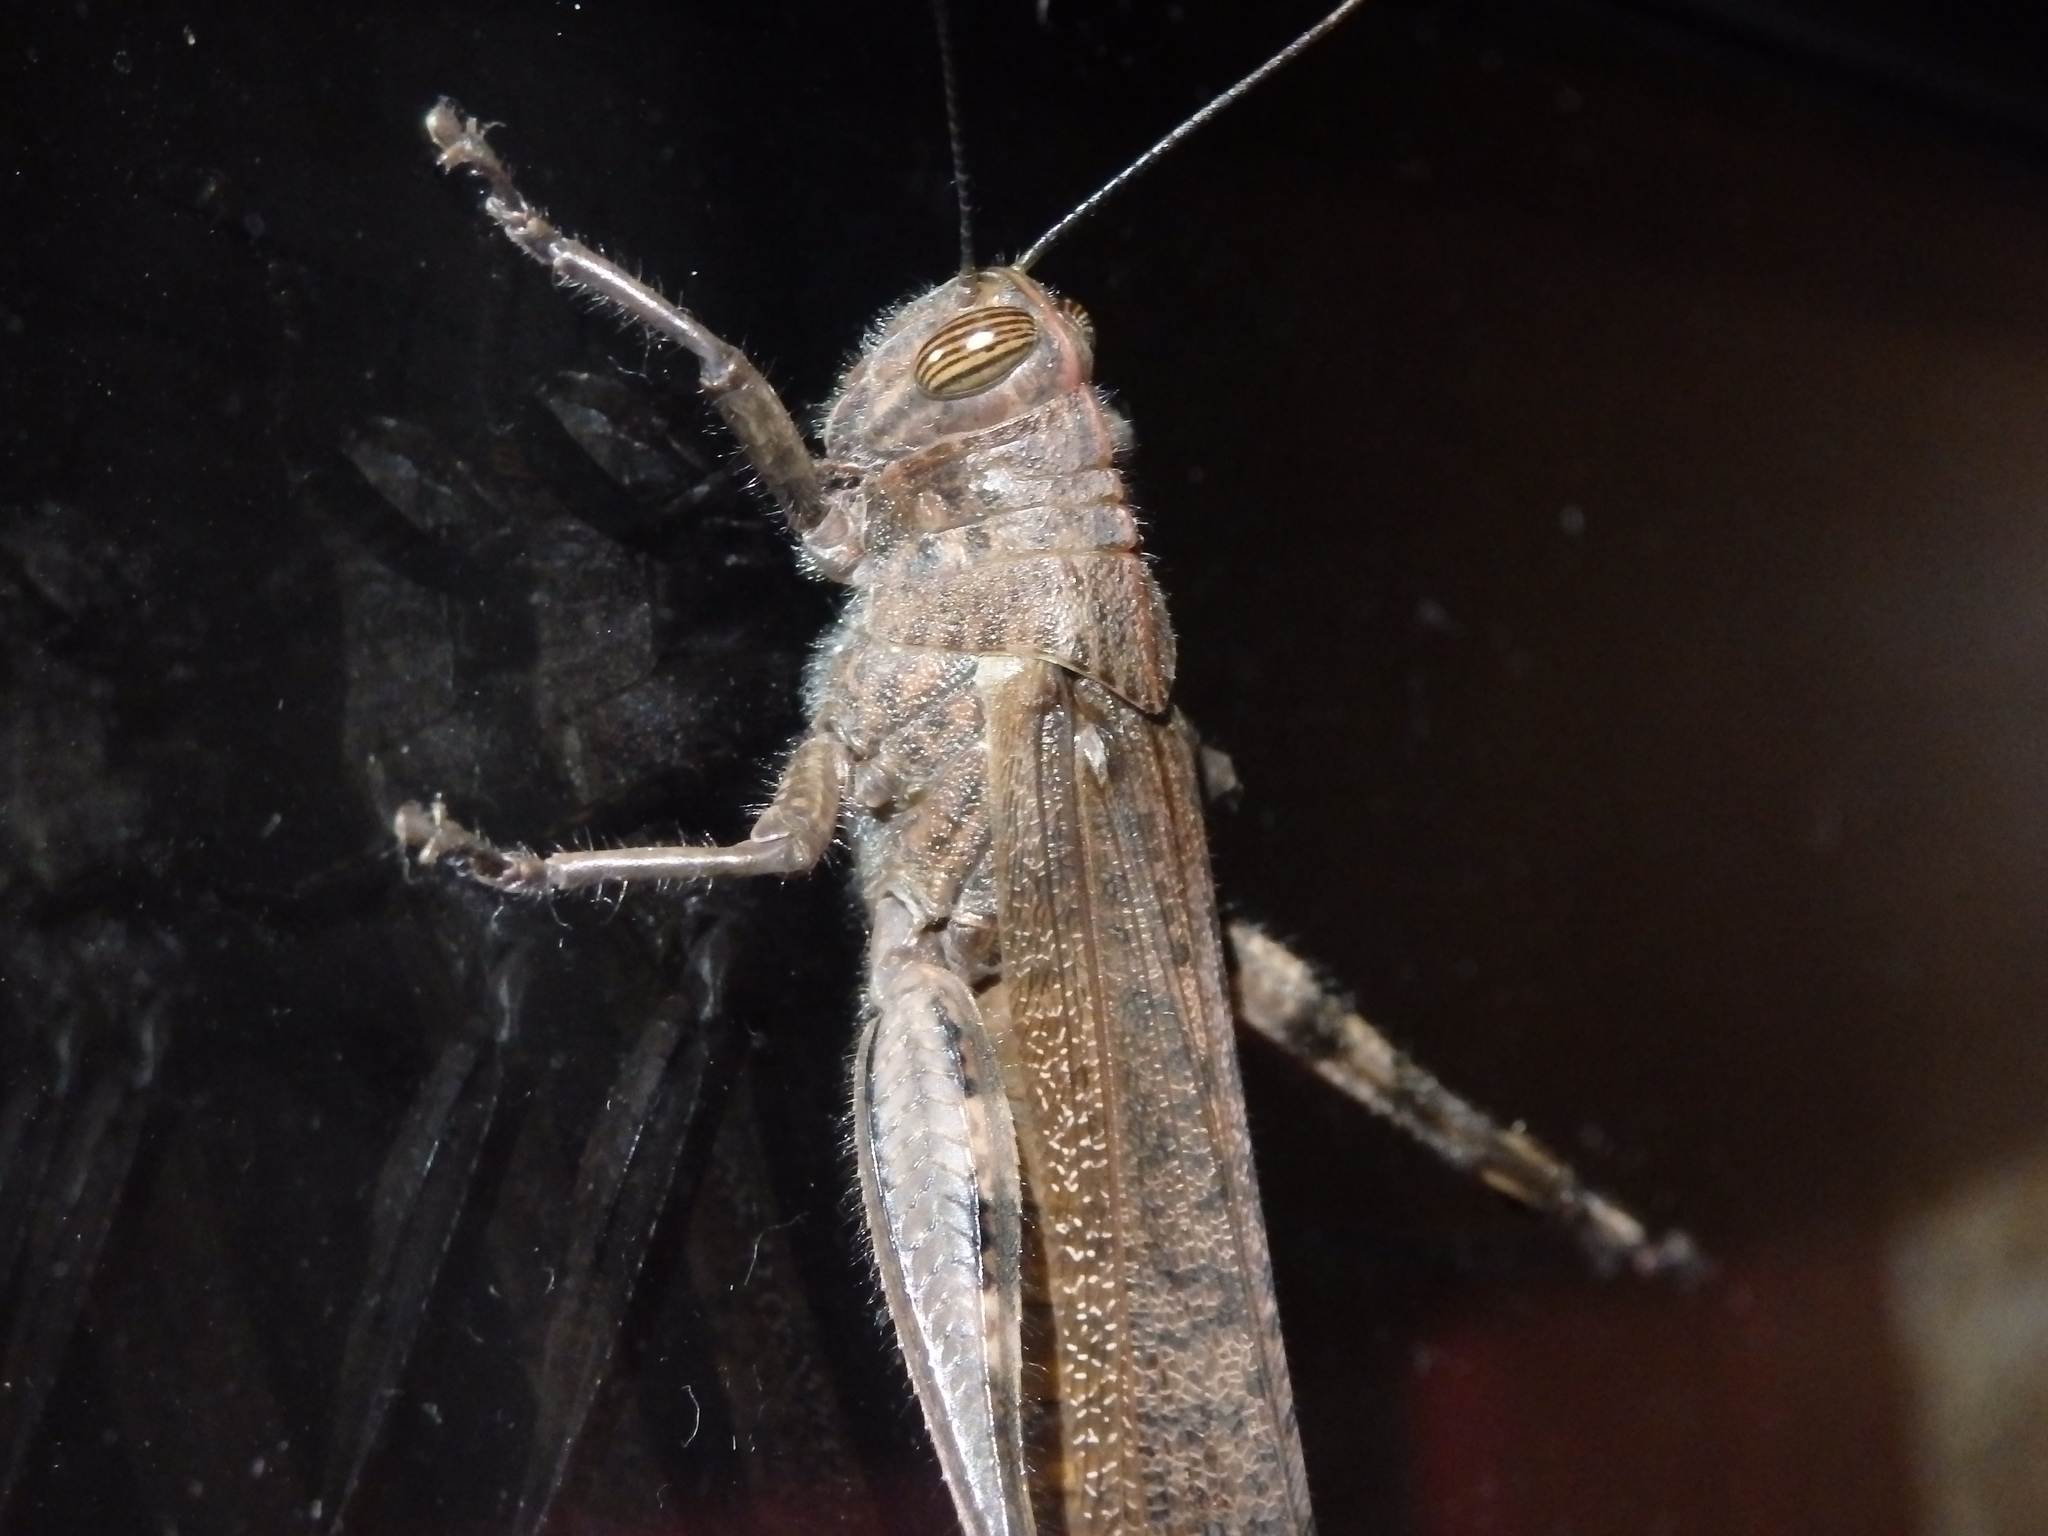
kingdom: Animalia
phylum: Arthropoda
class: Insecta
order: Orthoptera
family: Acrididae
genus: Anacridium
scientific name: Anacridium aegyptium
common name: Egyptian grasshopper
